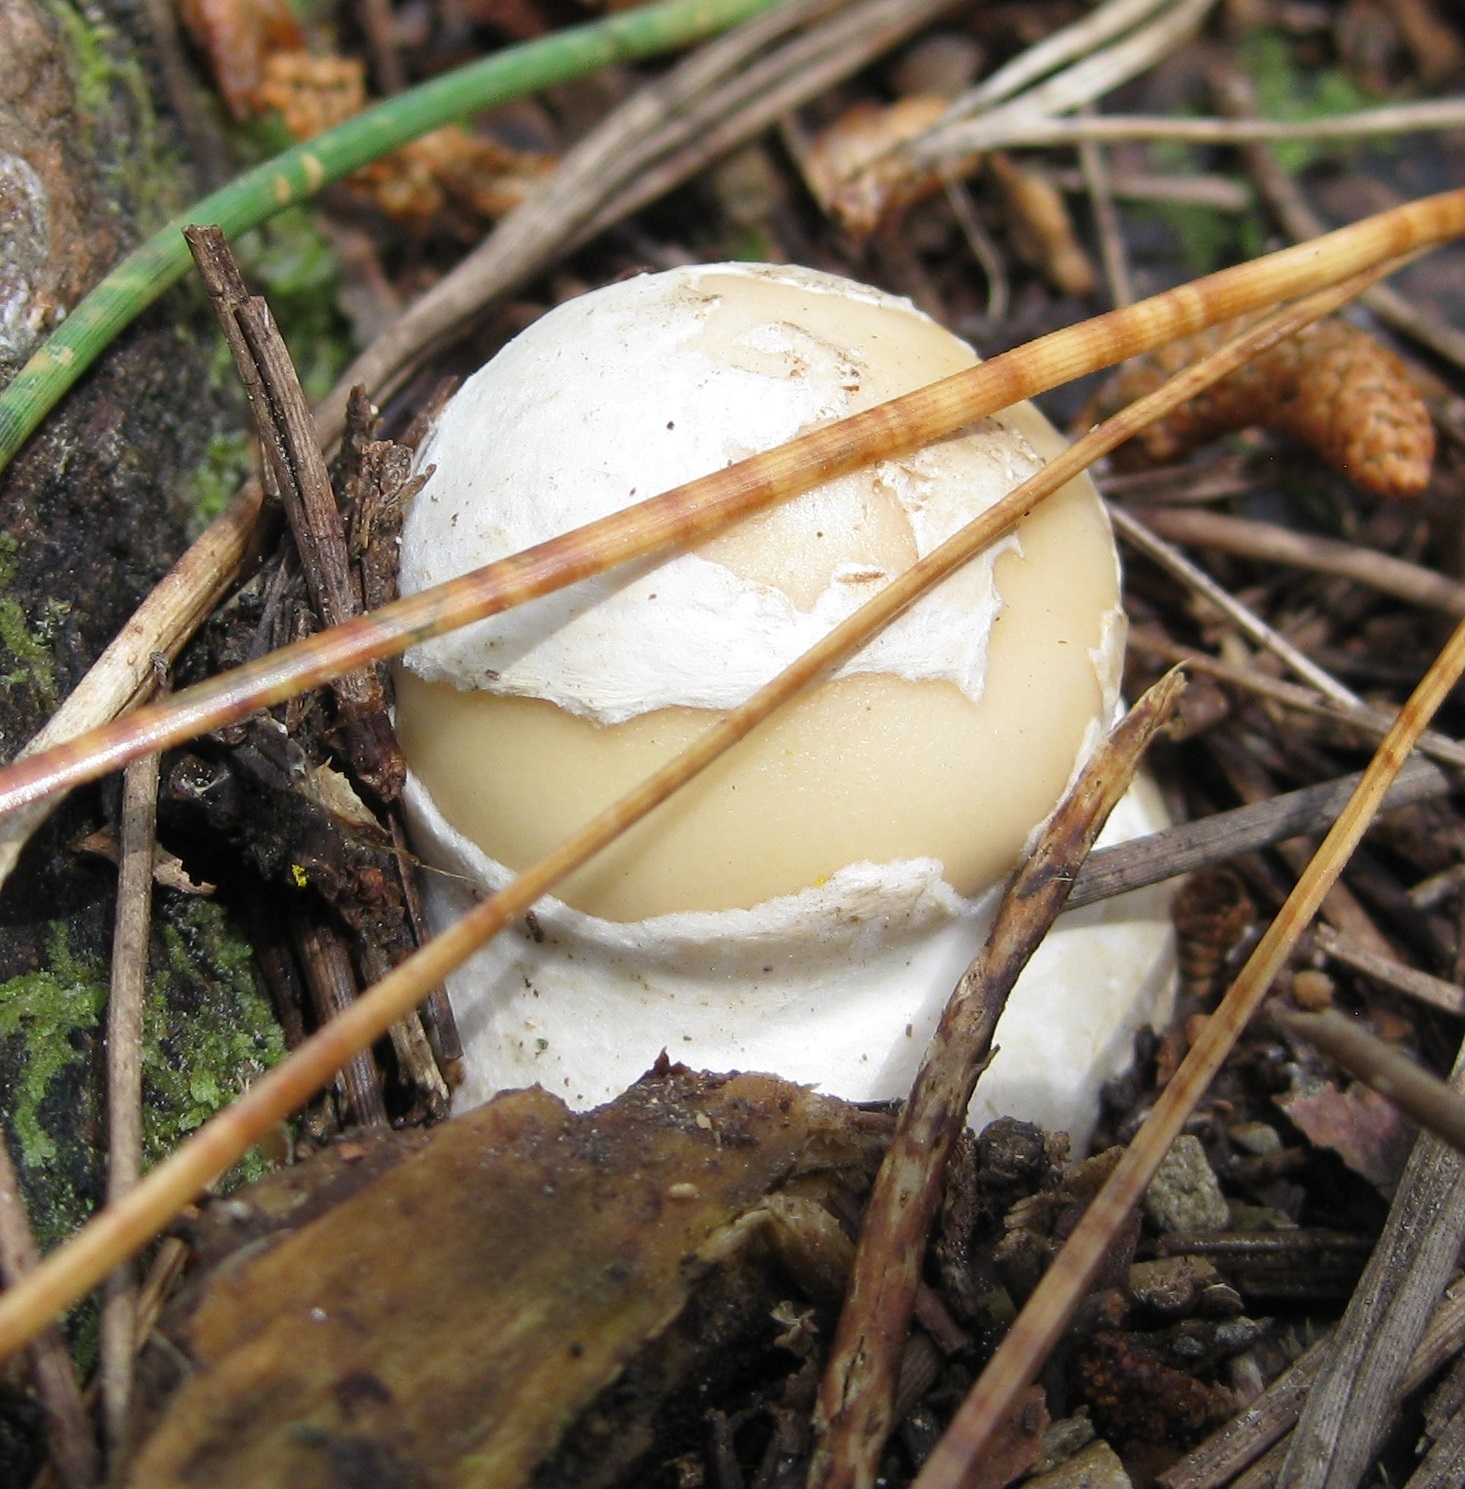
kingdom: Fungi
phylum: Basidiomycota
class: Agaricomycetes
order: Agaricales
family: Amanitaceae
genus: Amanita
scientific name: Amanita gemmata
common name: Jewelled amanita
